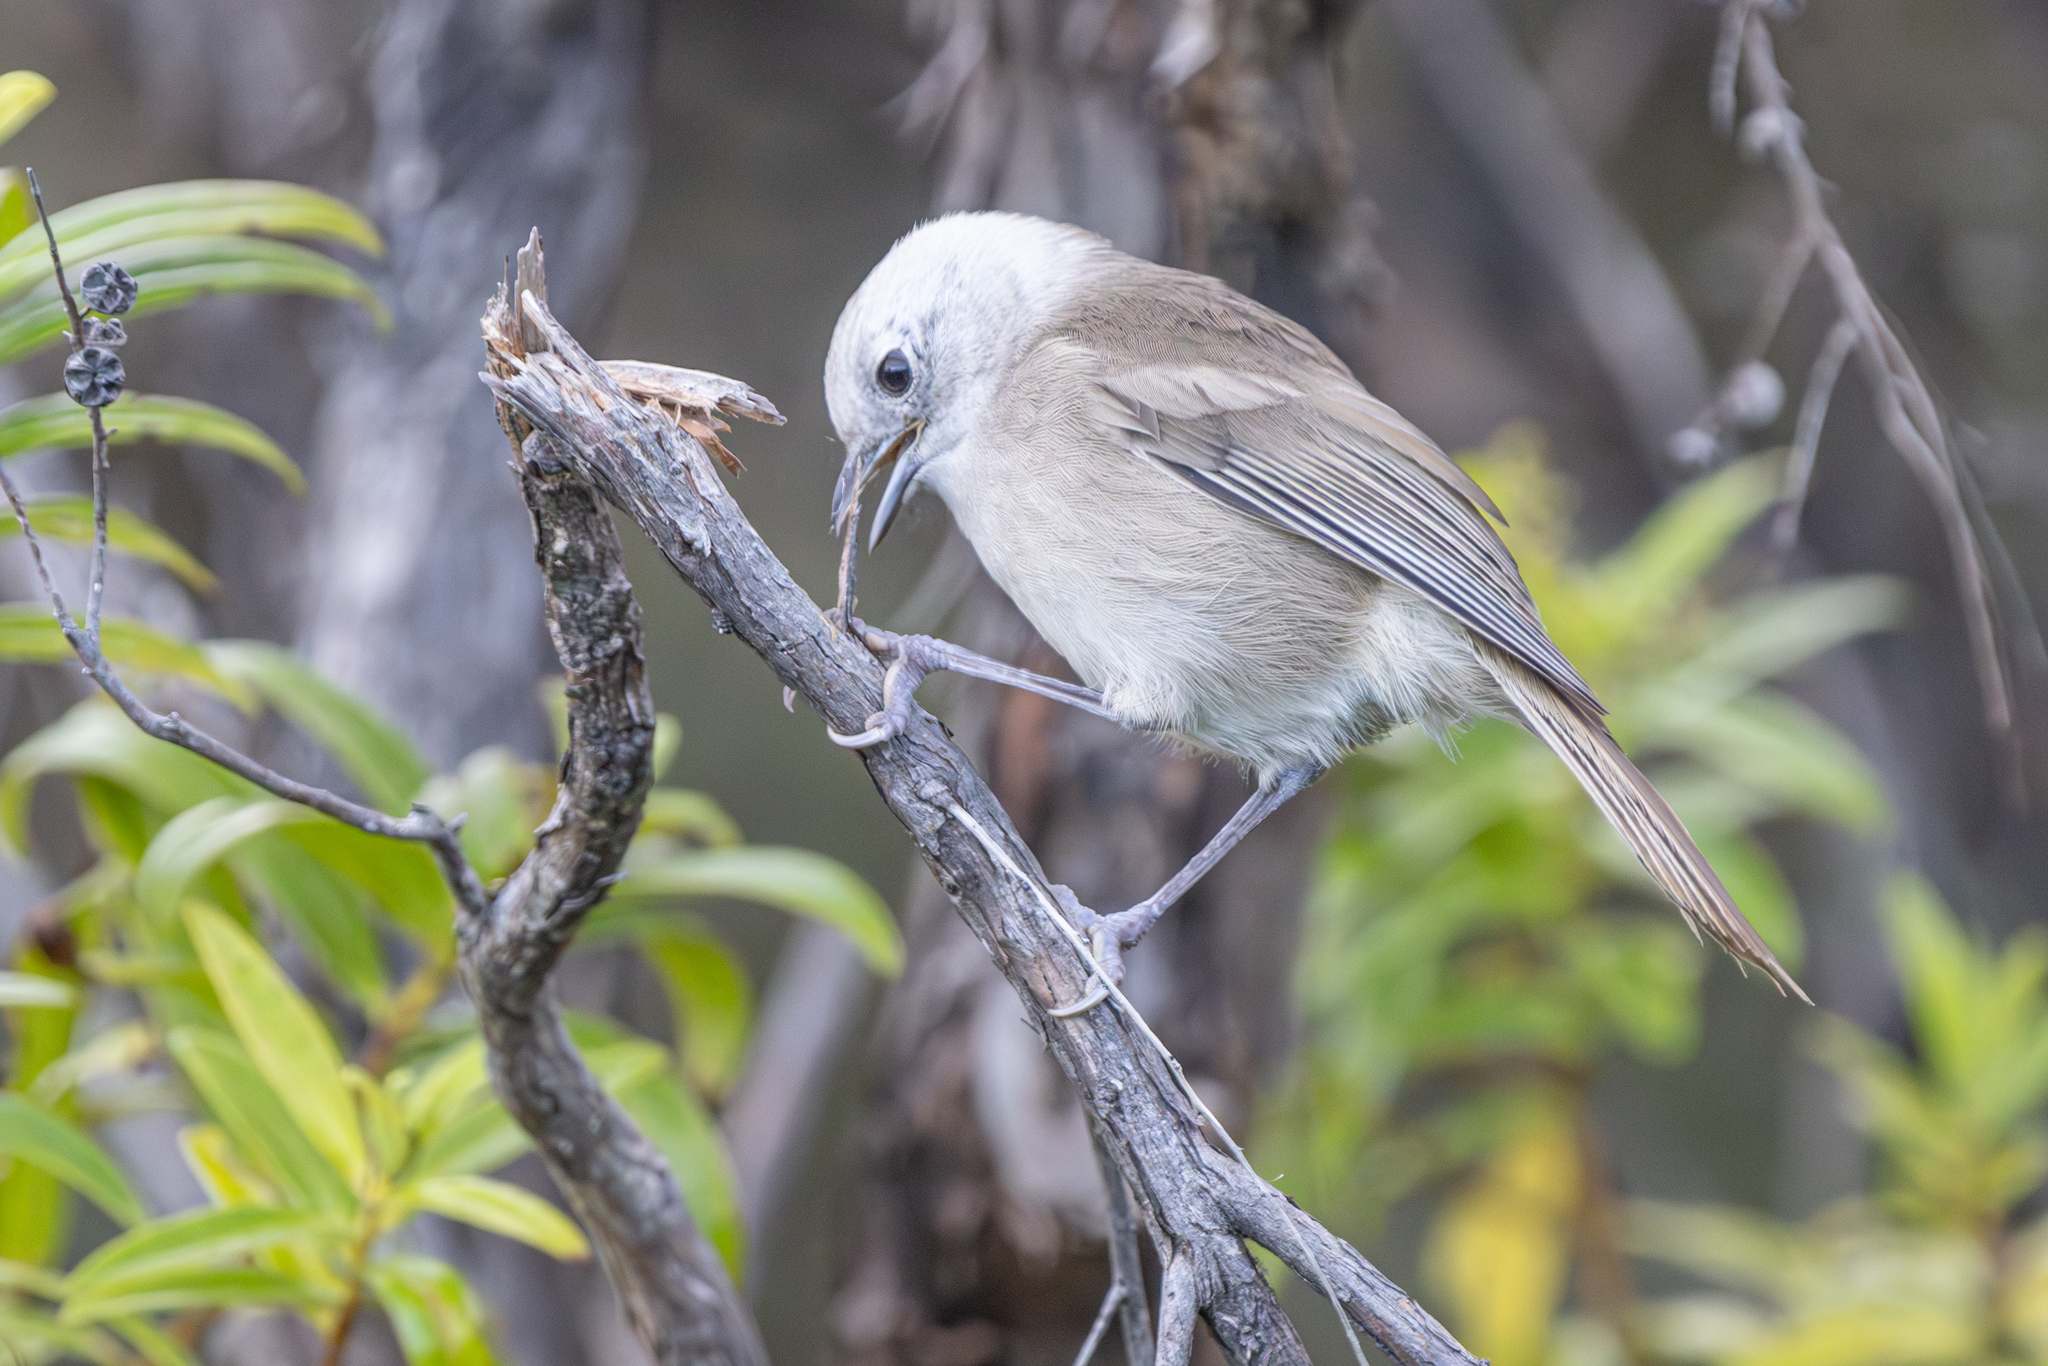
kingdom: Animalia
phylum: Chordata
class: Aves
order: Passeriformes
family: Acanthizidae
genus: Mohoua
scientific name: Mohoua albicilla
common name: Whitehead
